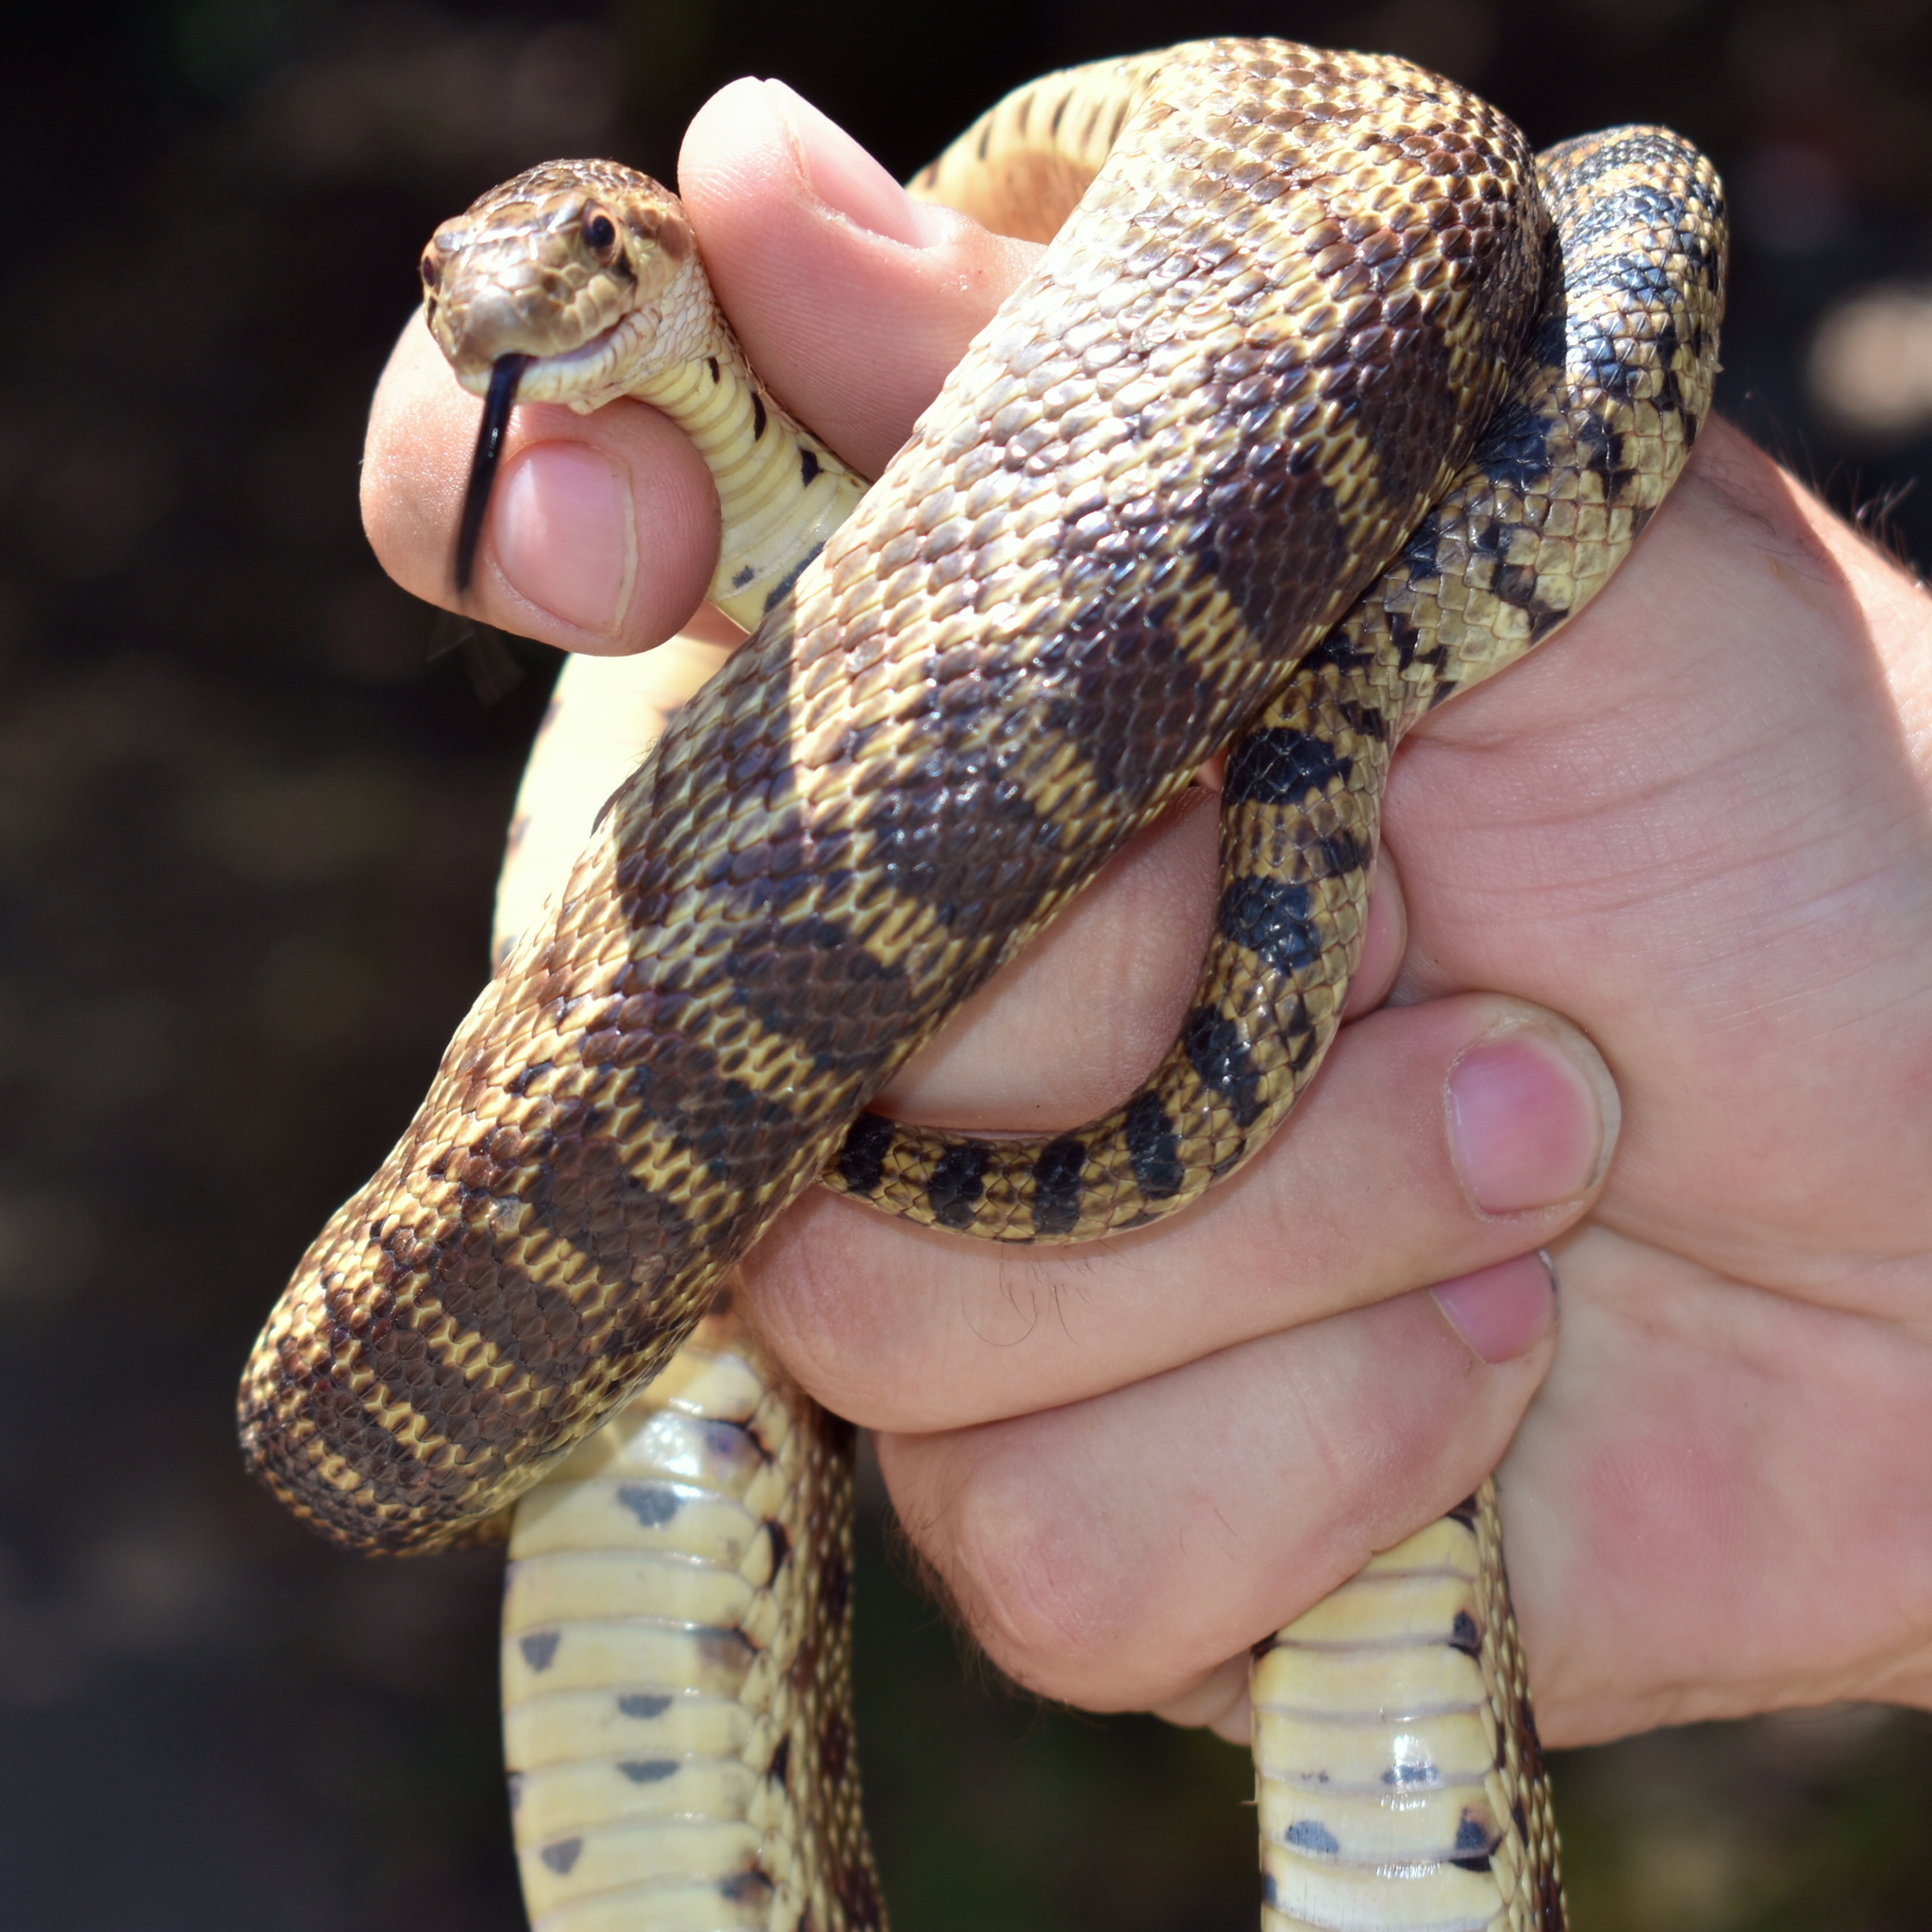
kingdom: Animalia
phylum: Chordata
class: Squamata
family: Colubridae
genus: Pituophis
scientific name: Pituophis catenifer
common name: Gopher snake
